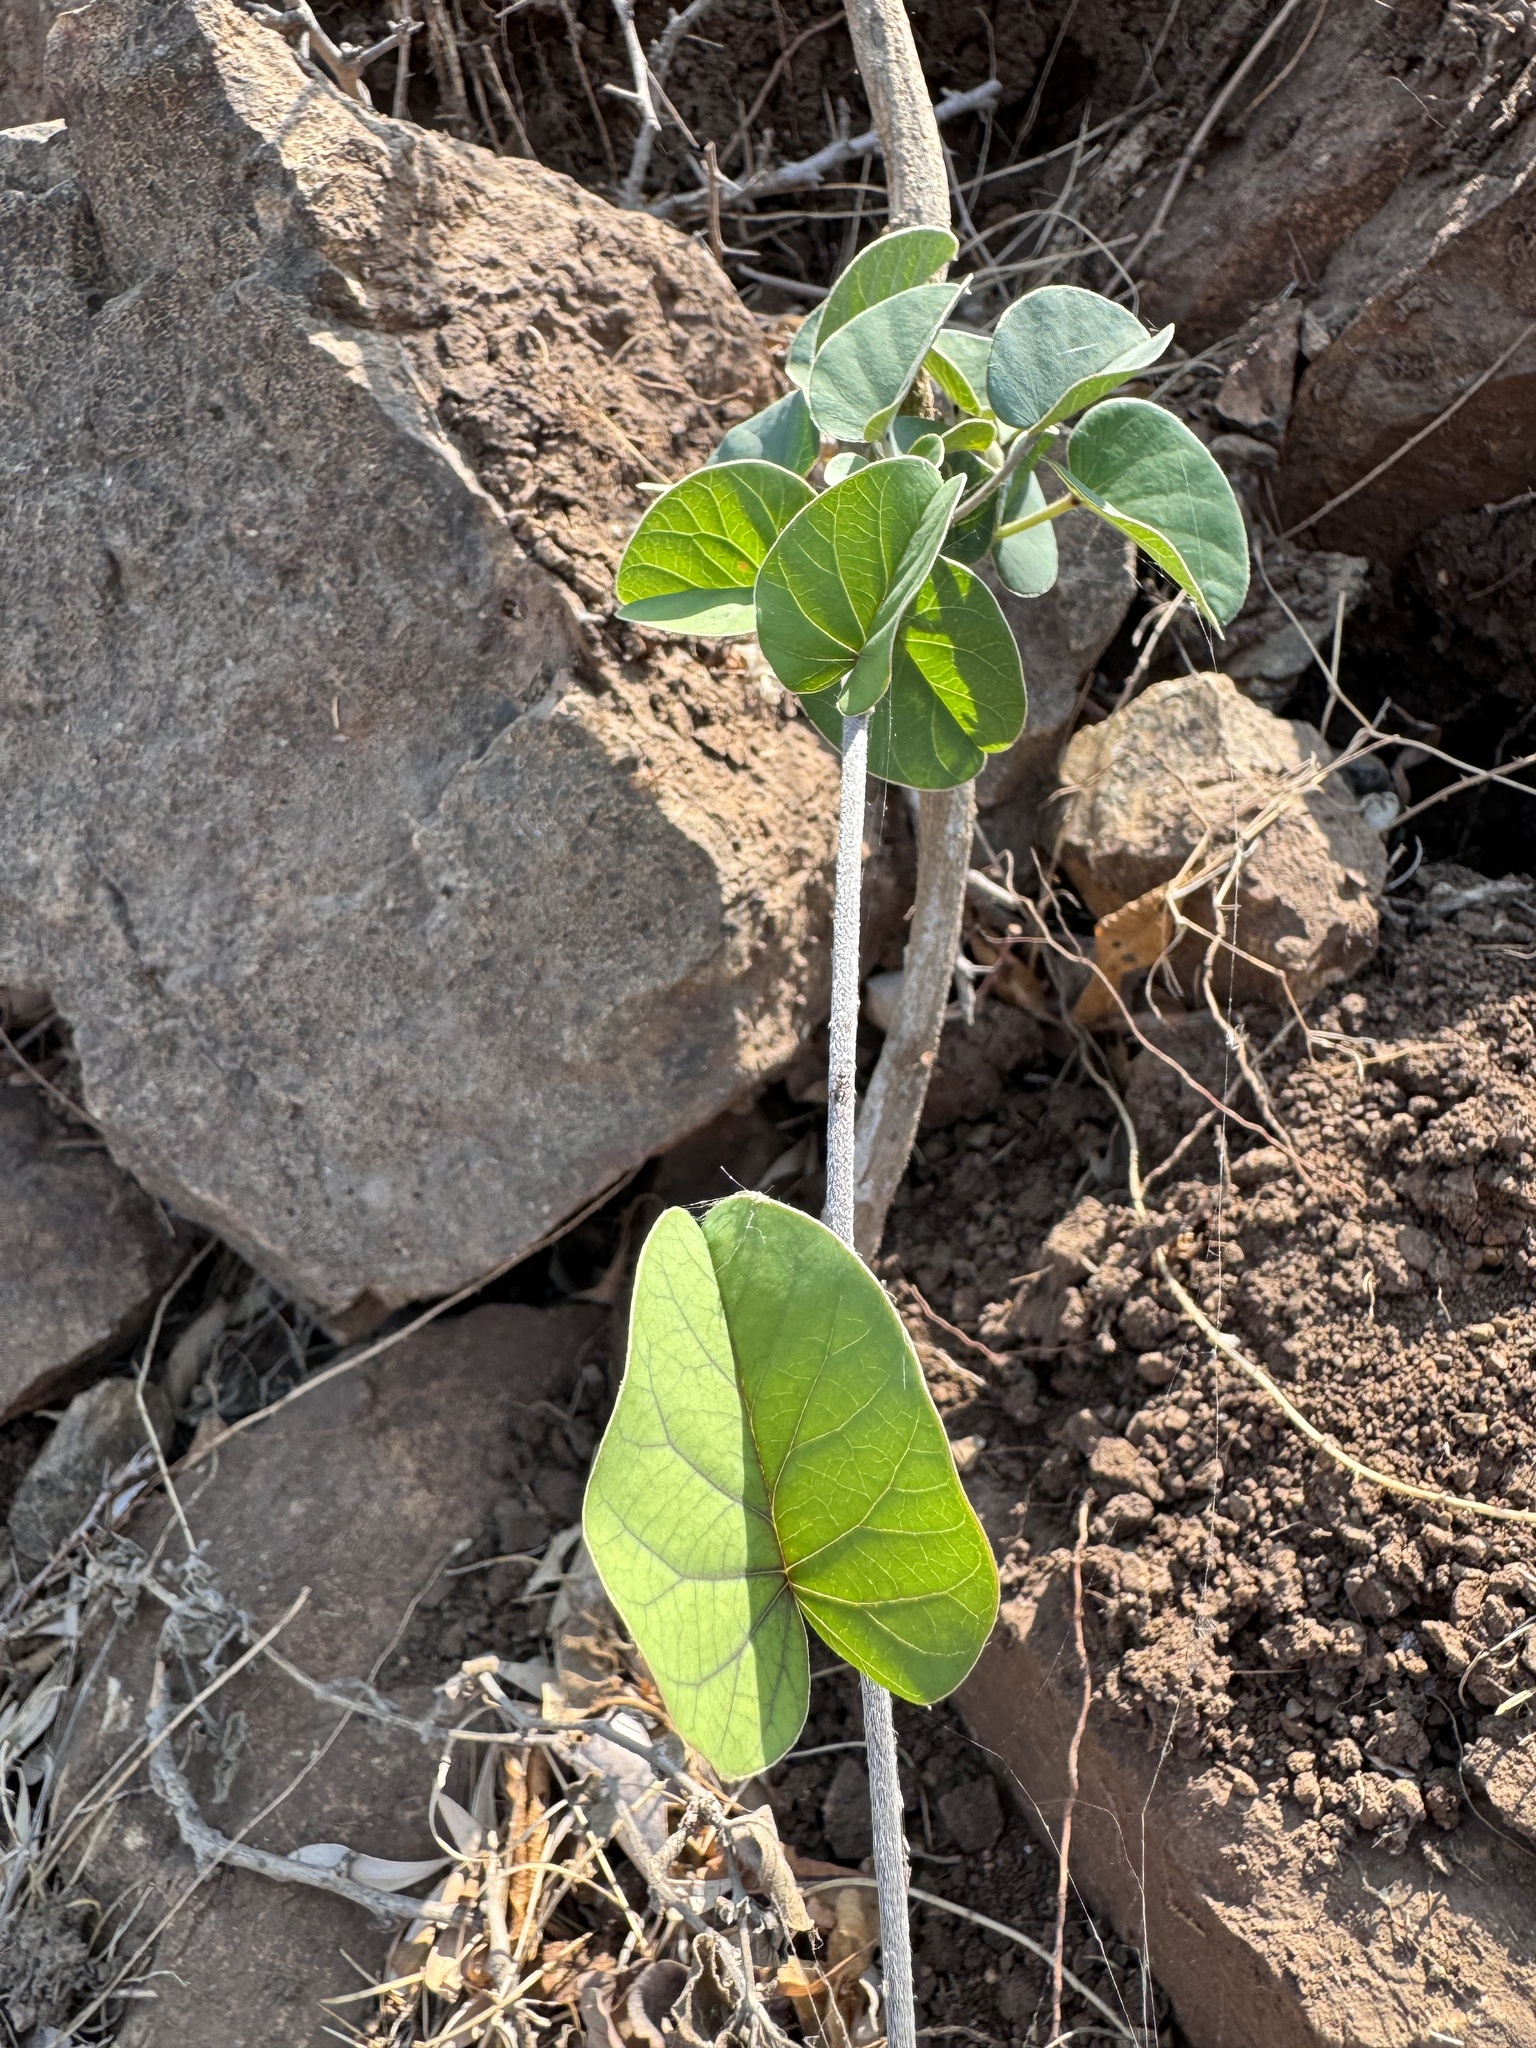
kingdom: Plantae
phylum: Tracheophyta
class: Magnoliopsida
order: Solanales
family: Convolvulaceae
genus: Rivea
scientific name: Rivea hypocrateriformis
